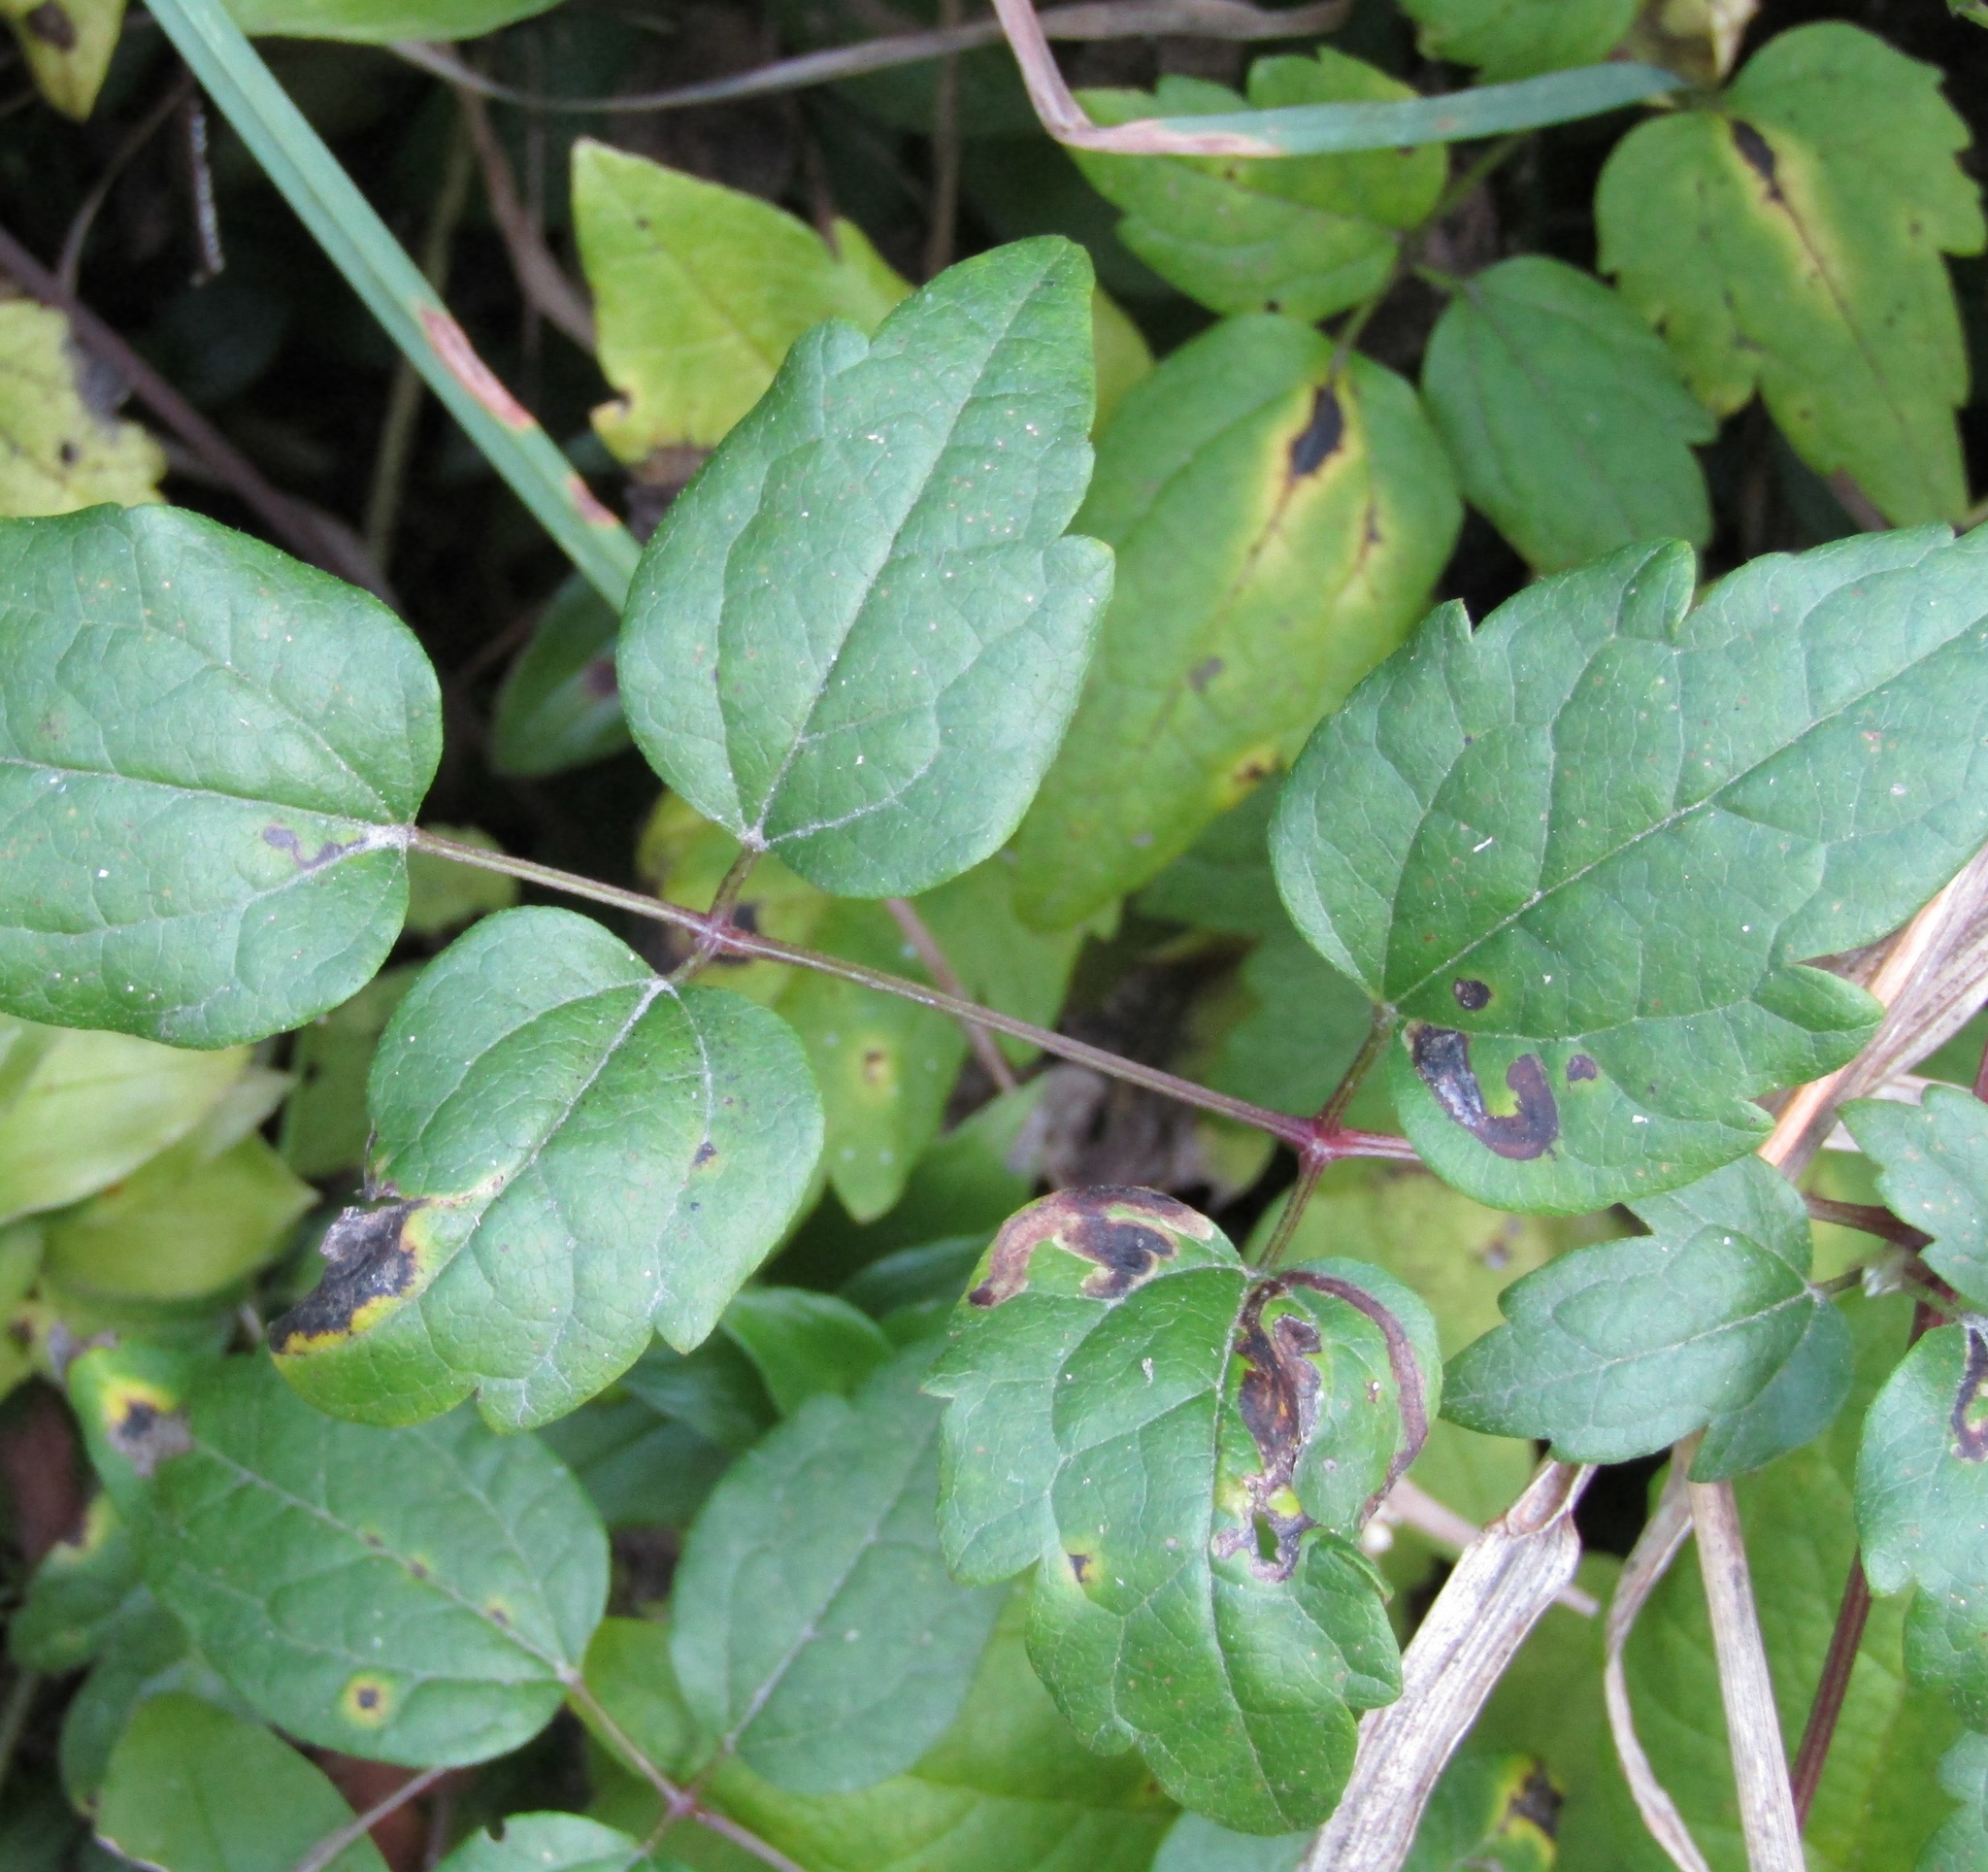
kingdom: Plantae
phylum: Tracheophyta
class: Magnoliopsida
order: Ranunculales
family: Ranunculaceae
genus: Clematis
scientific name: Clematis vitalba
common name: Evergreen clematis
